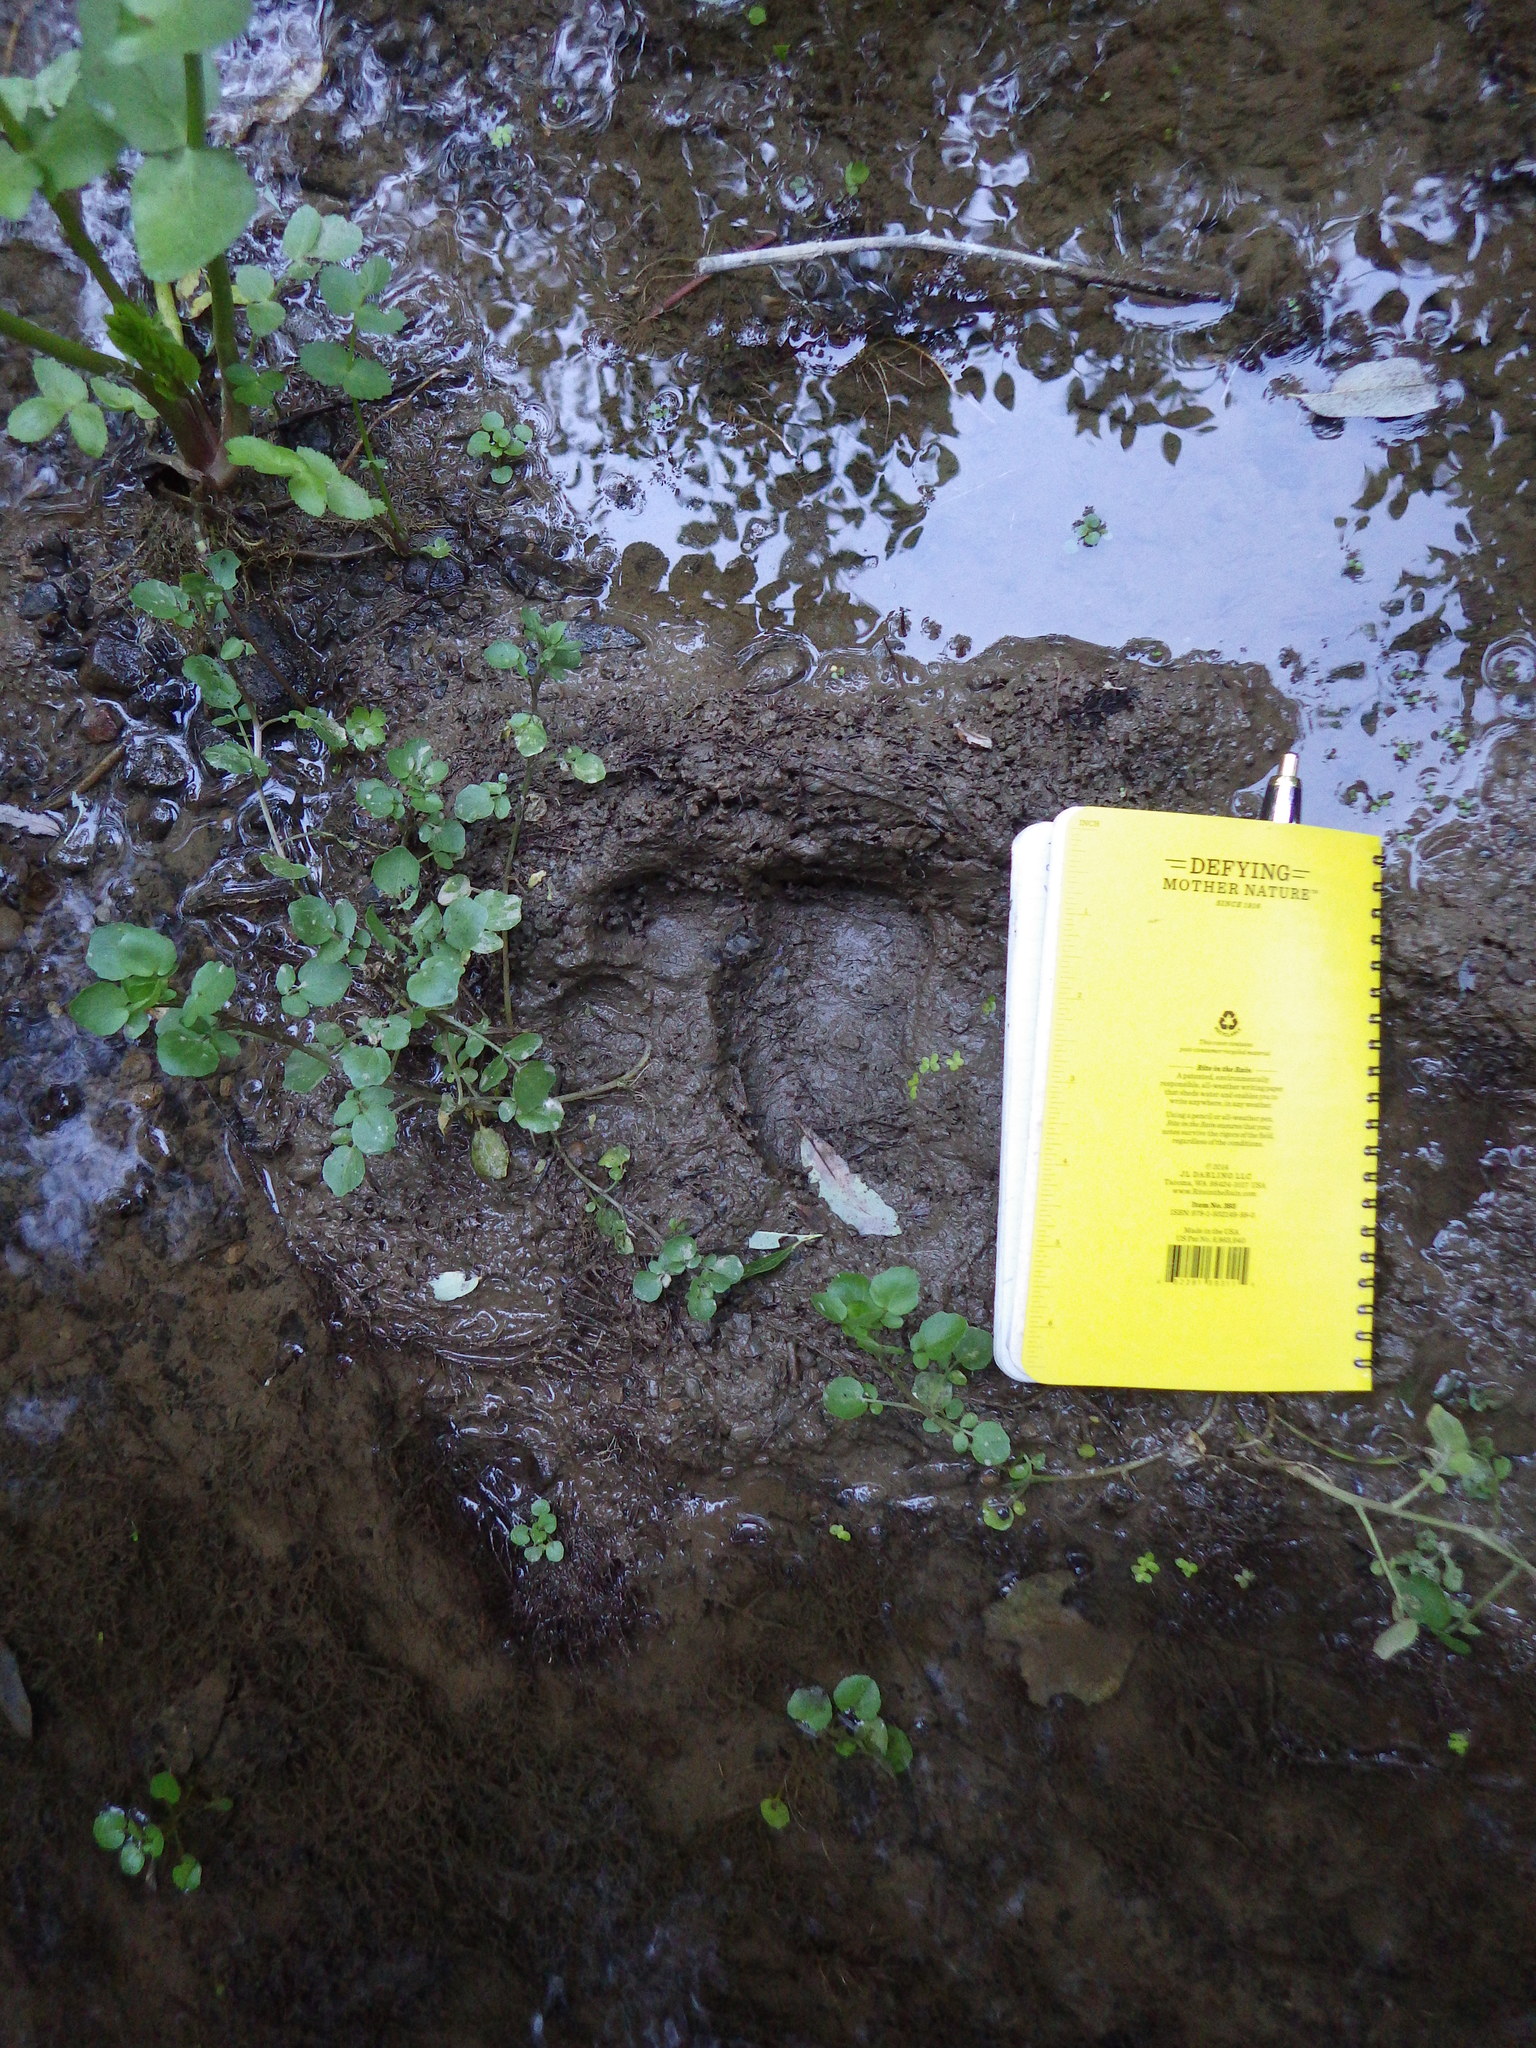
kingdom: Animalia
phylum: Chordata
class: Mammalia
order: Carnivora
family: Ursidae
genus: Ursus
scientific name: Ursus americanus
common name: American black bear
